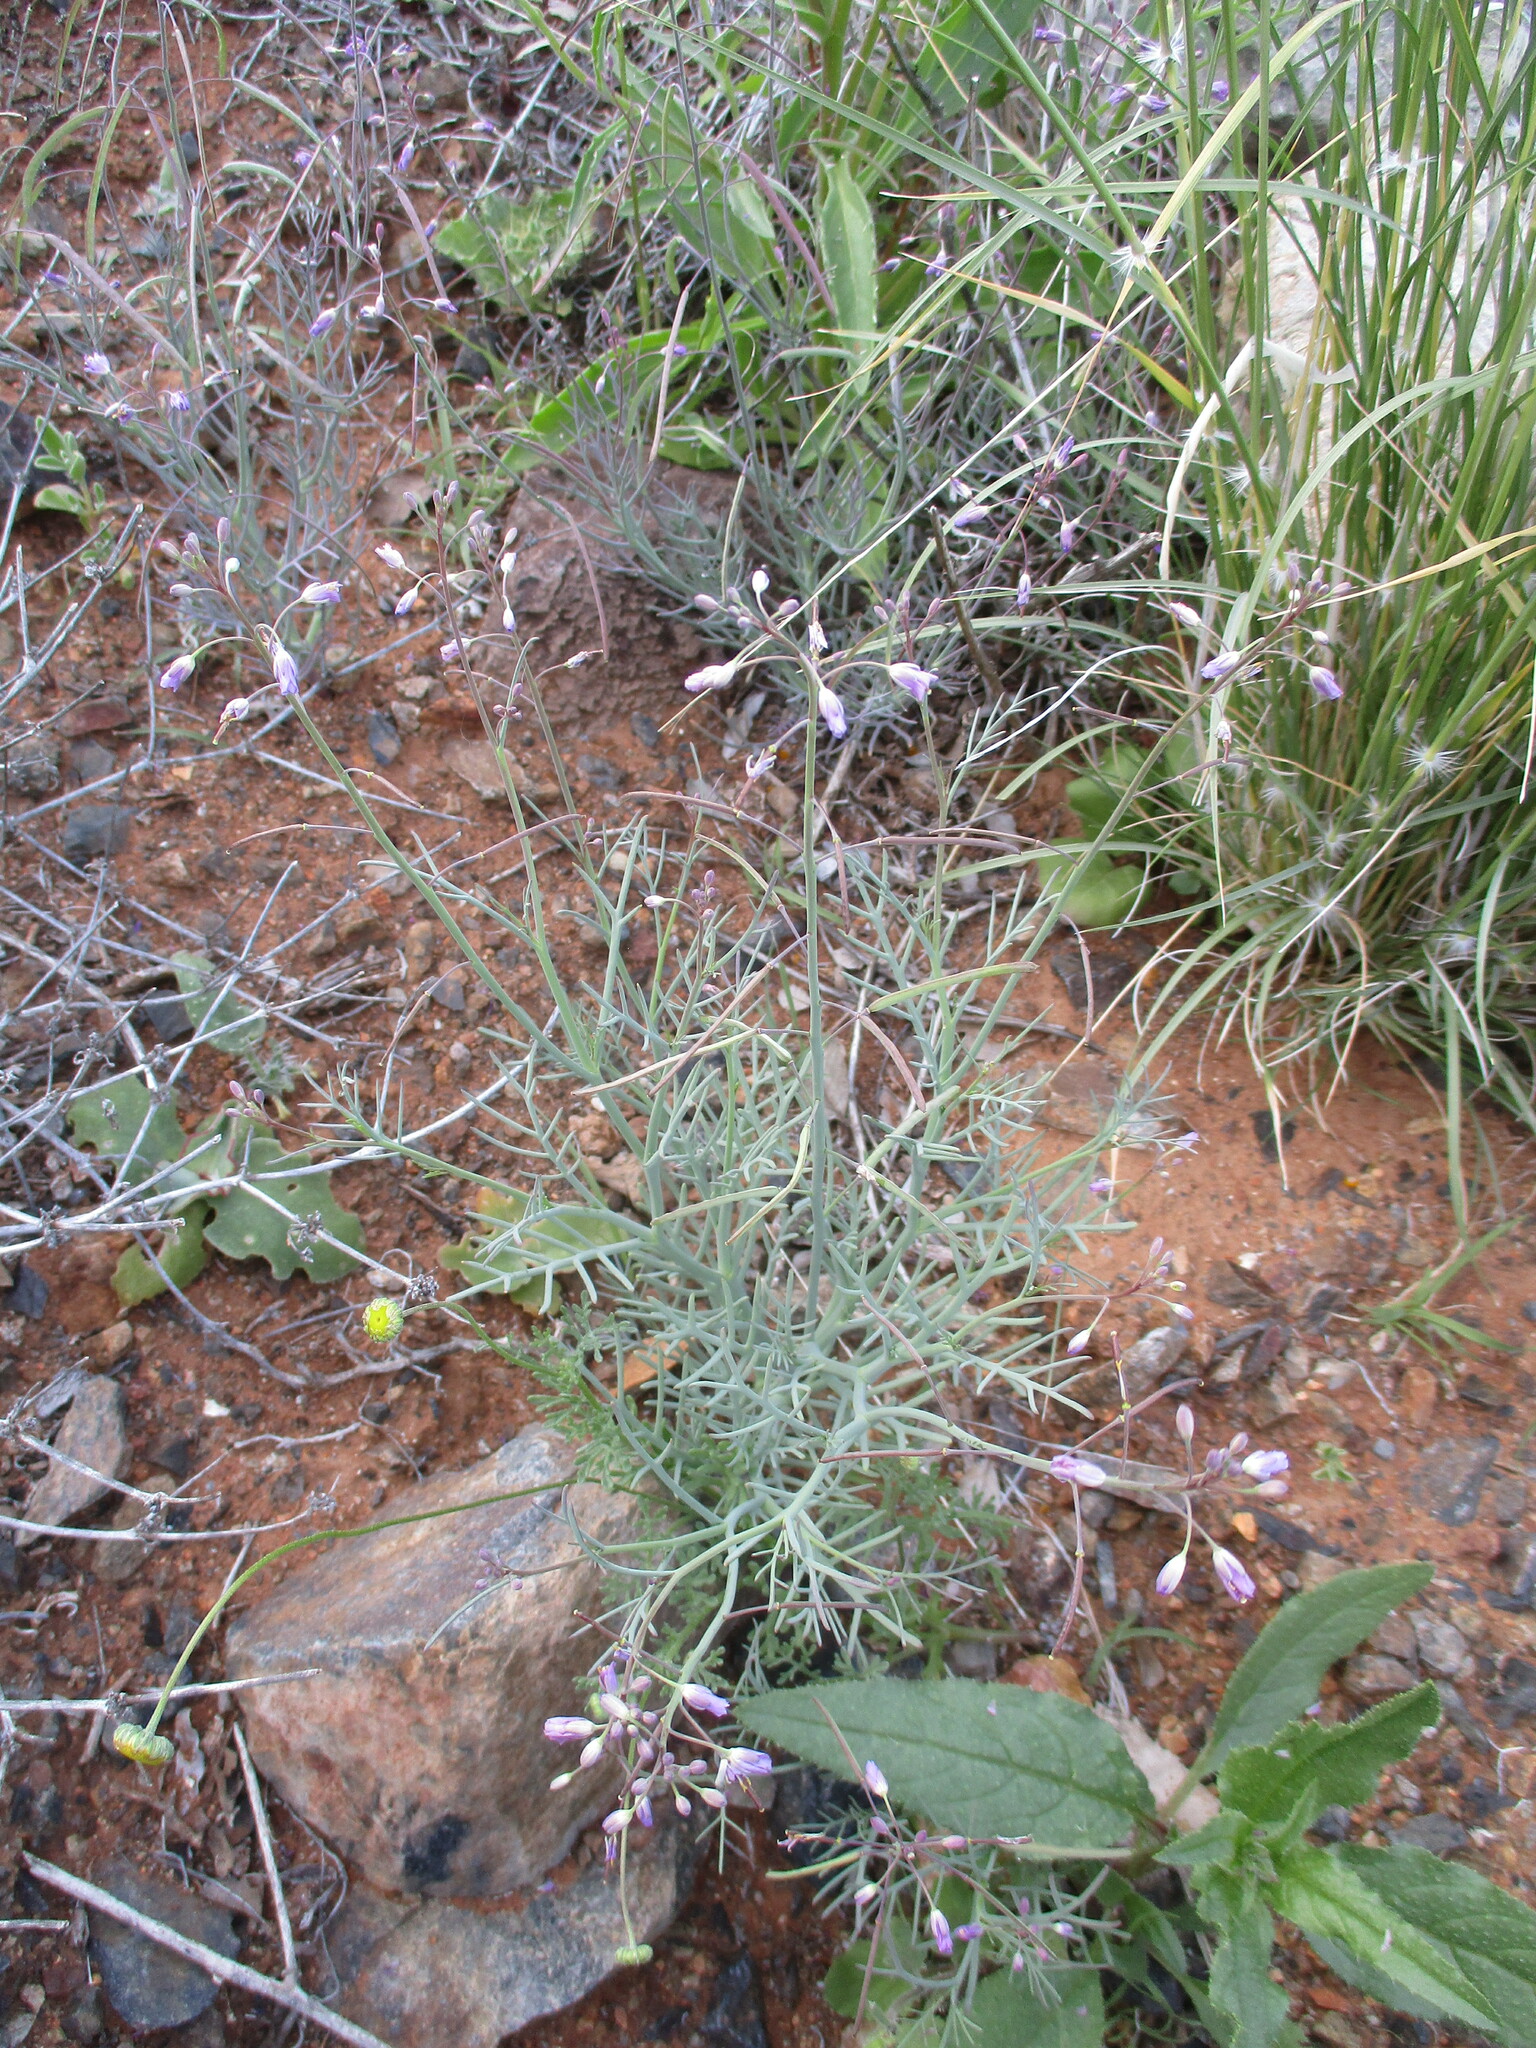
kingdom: Plantae
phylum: Tracheophyta
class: Magnoliopsida
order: Brassicales
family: Brassicaceae
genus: Heliophila
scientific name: Heliophila deserticola
